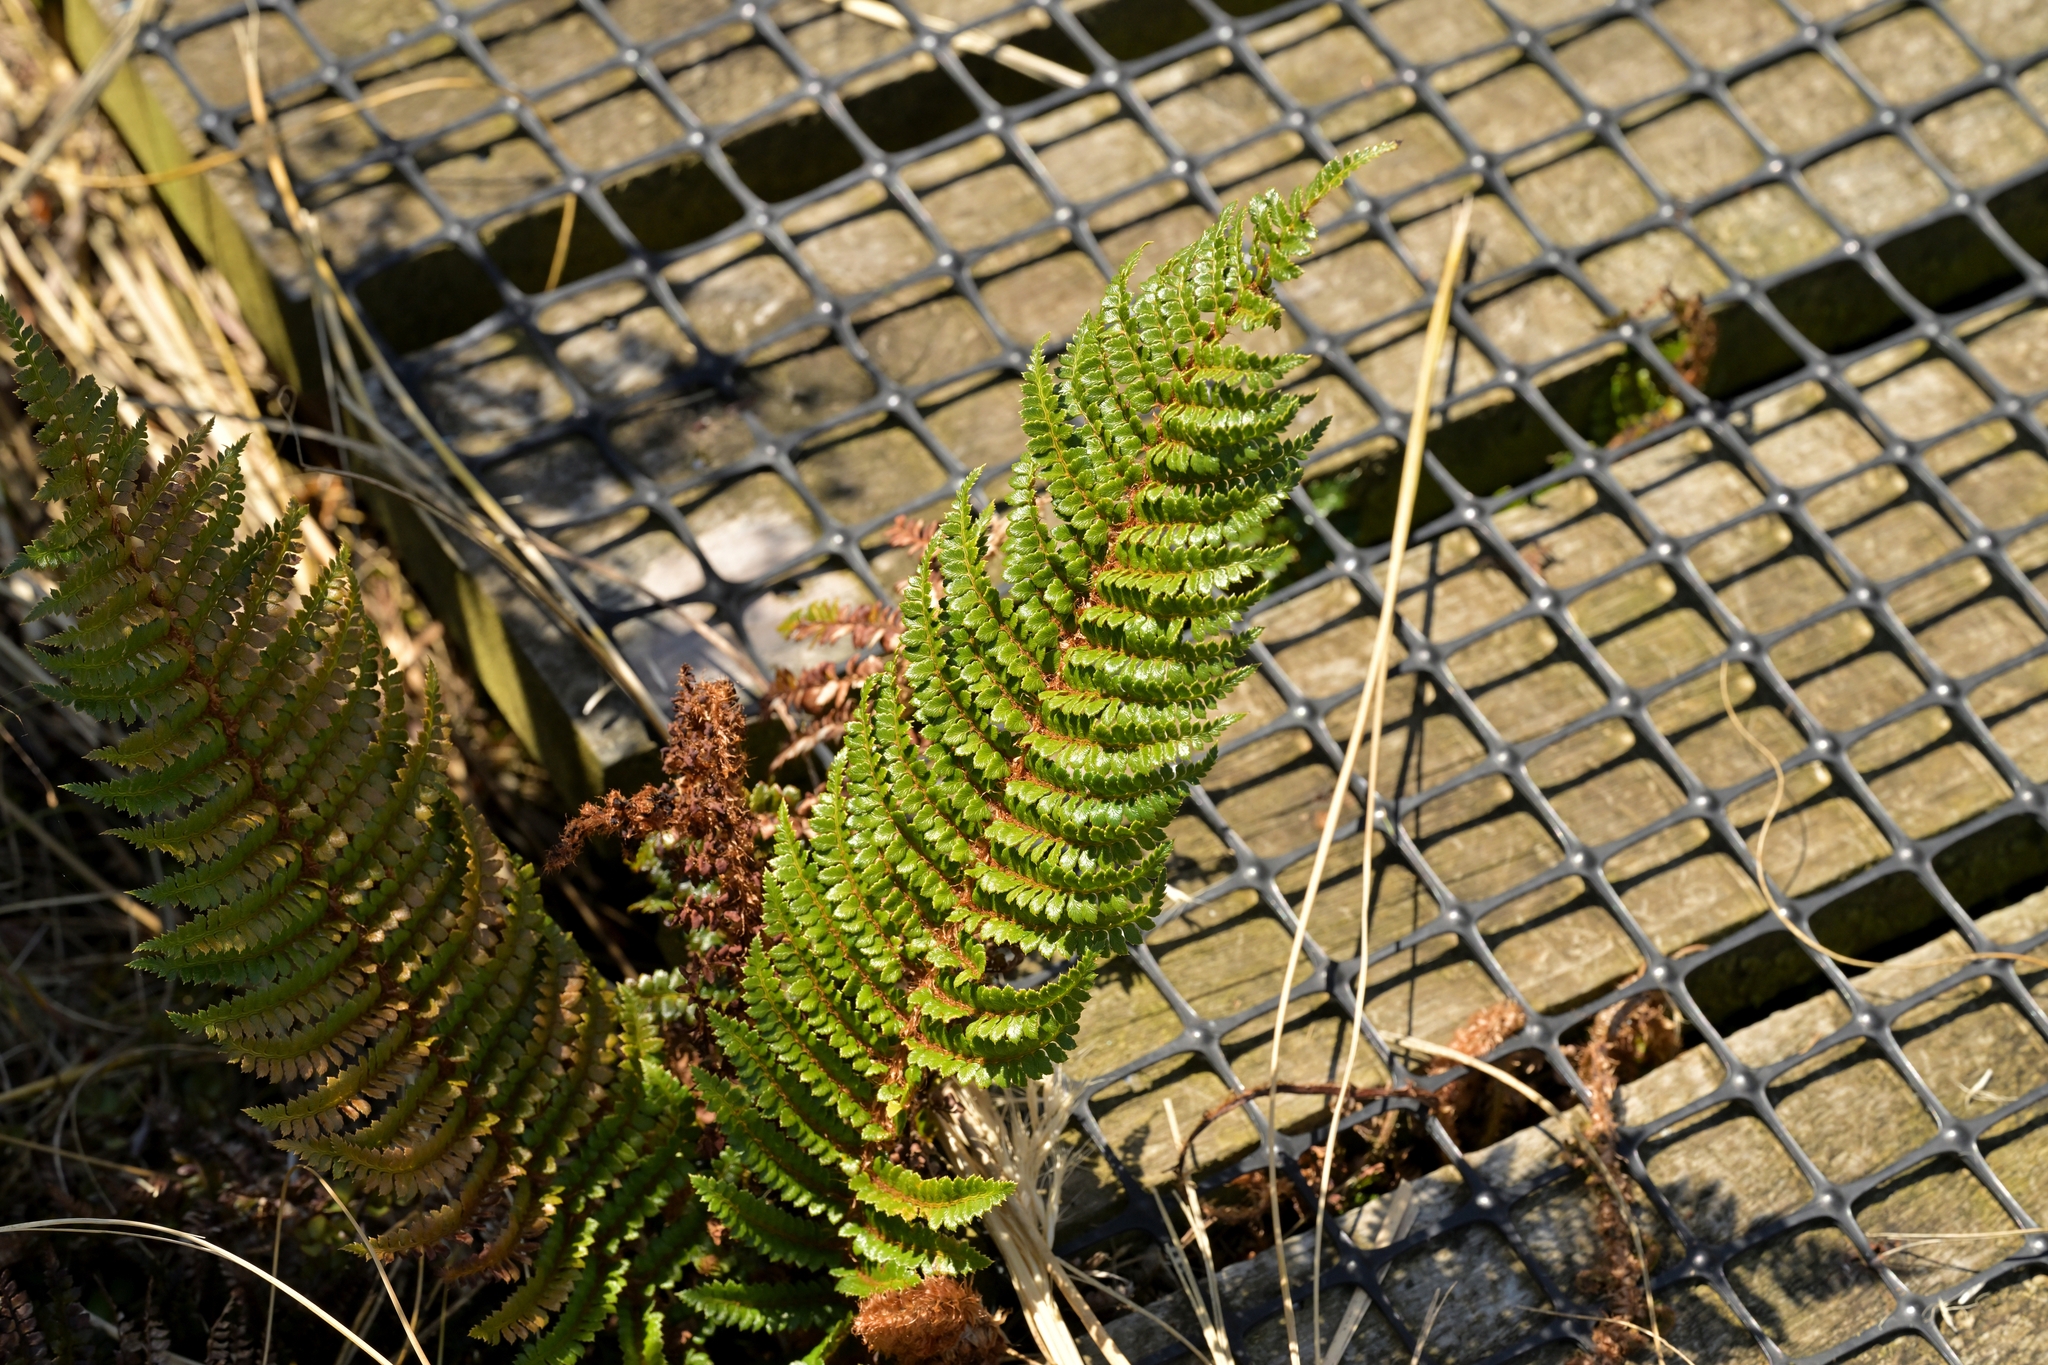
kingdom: Plantae
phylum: Tracheophyta
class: Polypodiopsida
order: Polypodiales
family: Dryopteridaceae
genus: Polystichum
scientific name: Polystichum vestitum
